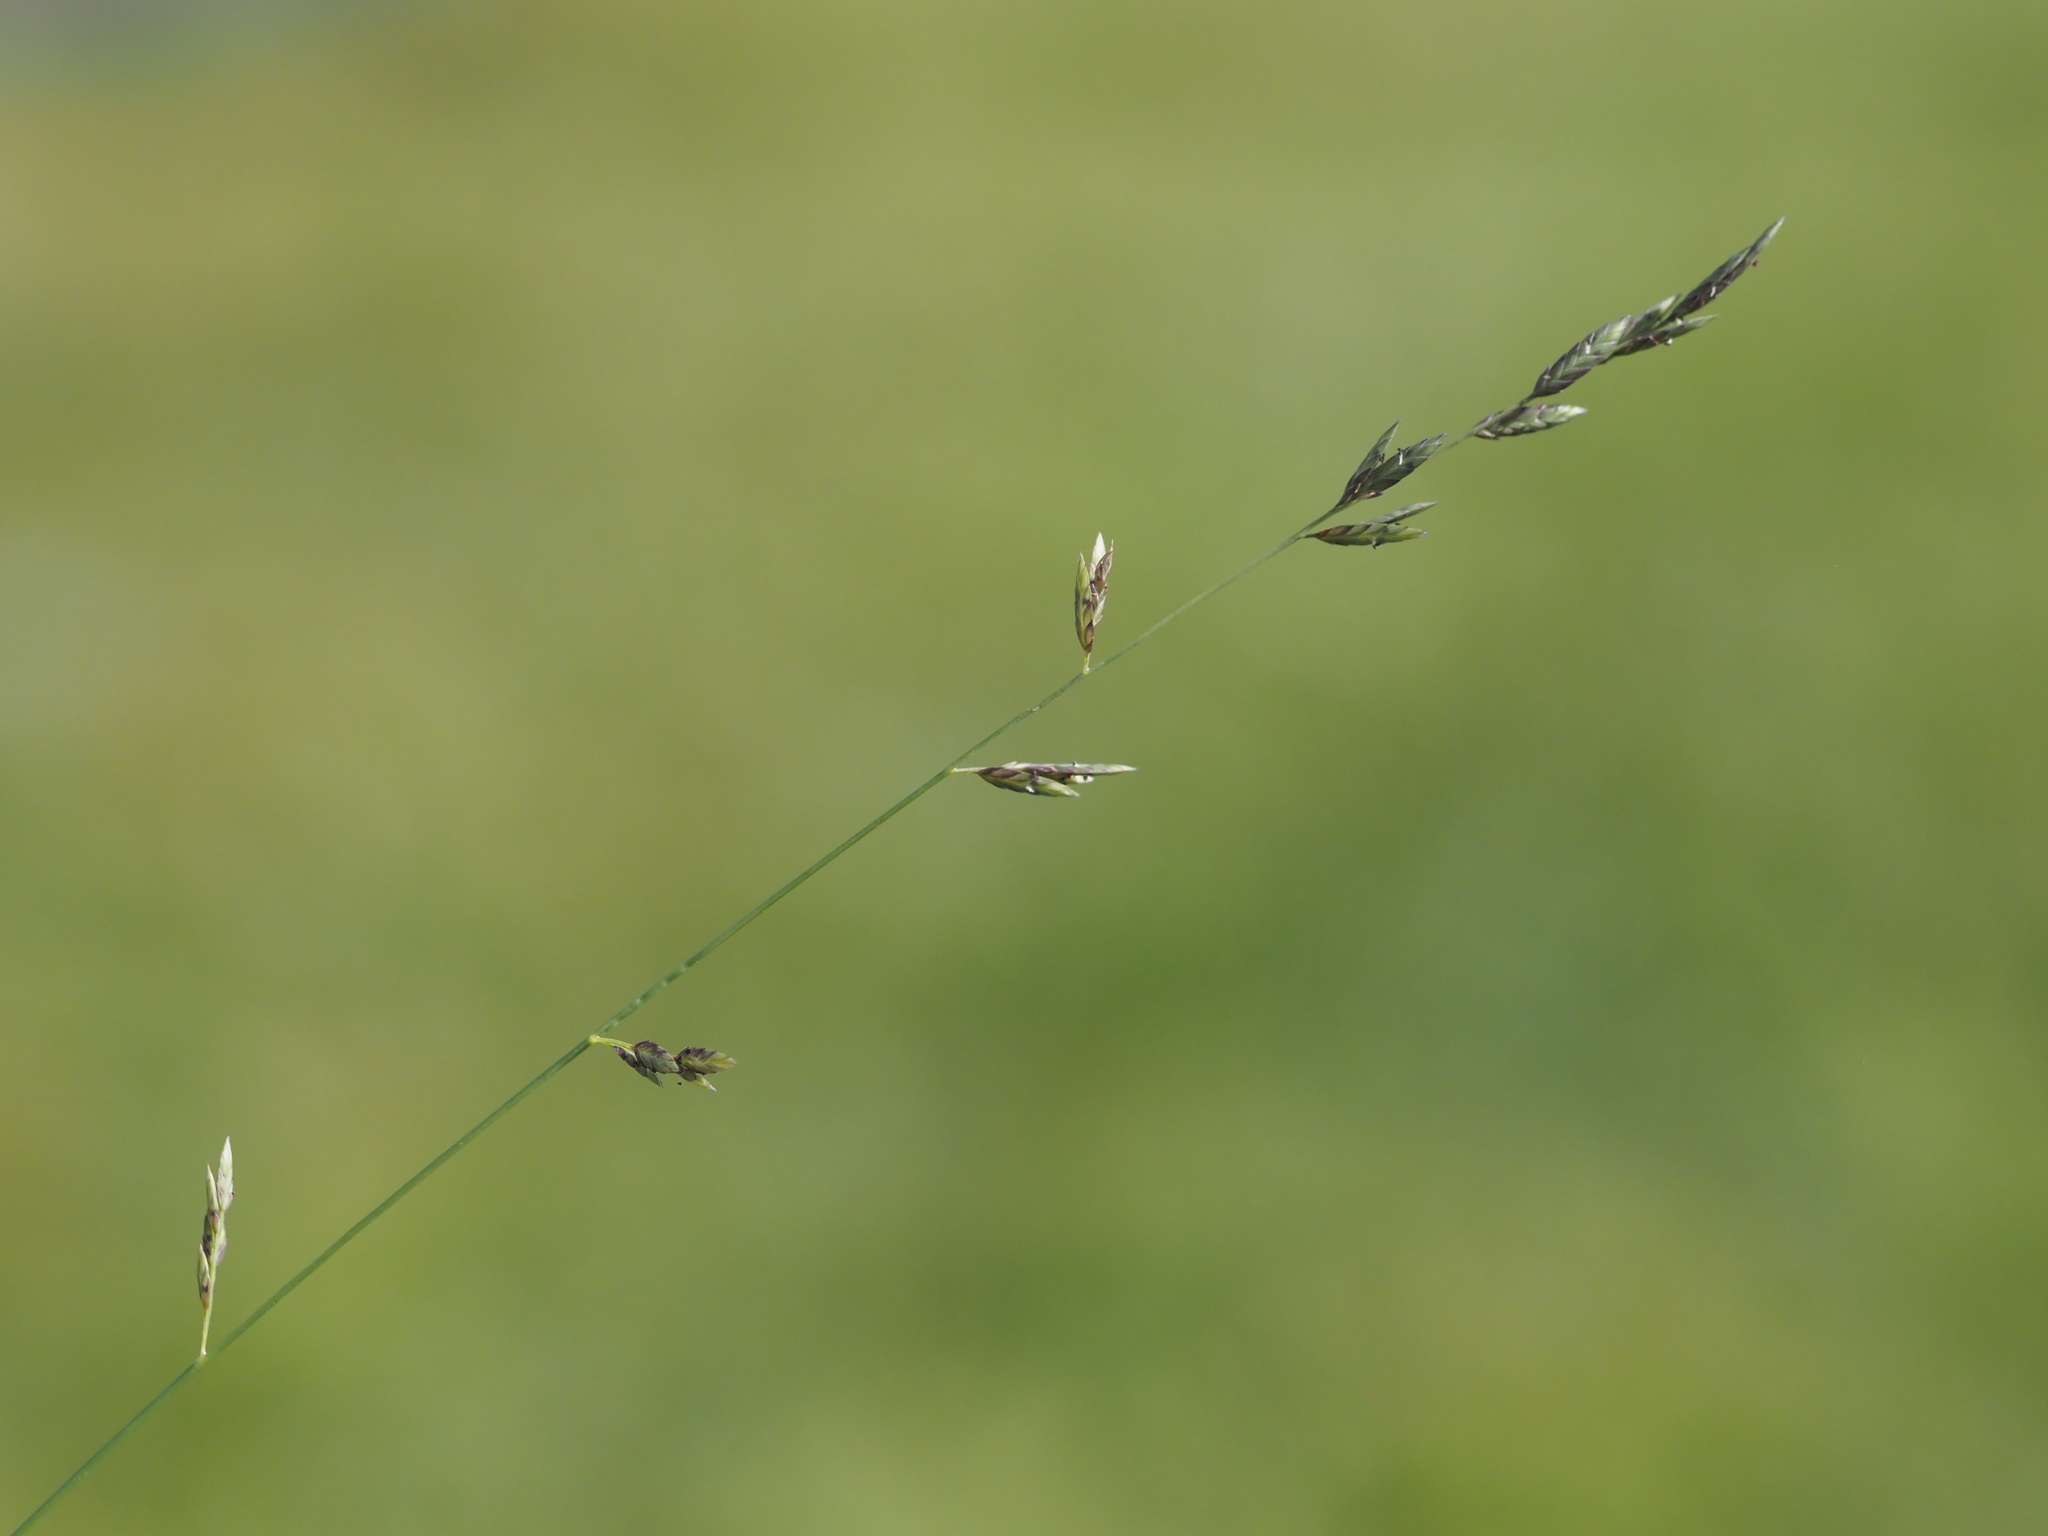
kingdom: Plantae
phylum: Tracheophyta
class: Liliopsida
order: Poales
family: Poaceae
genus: Eragrostis
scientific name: Eragrostis brownii
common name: Lovegrass
